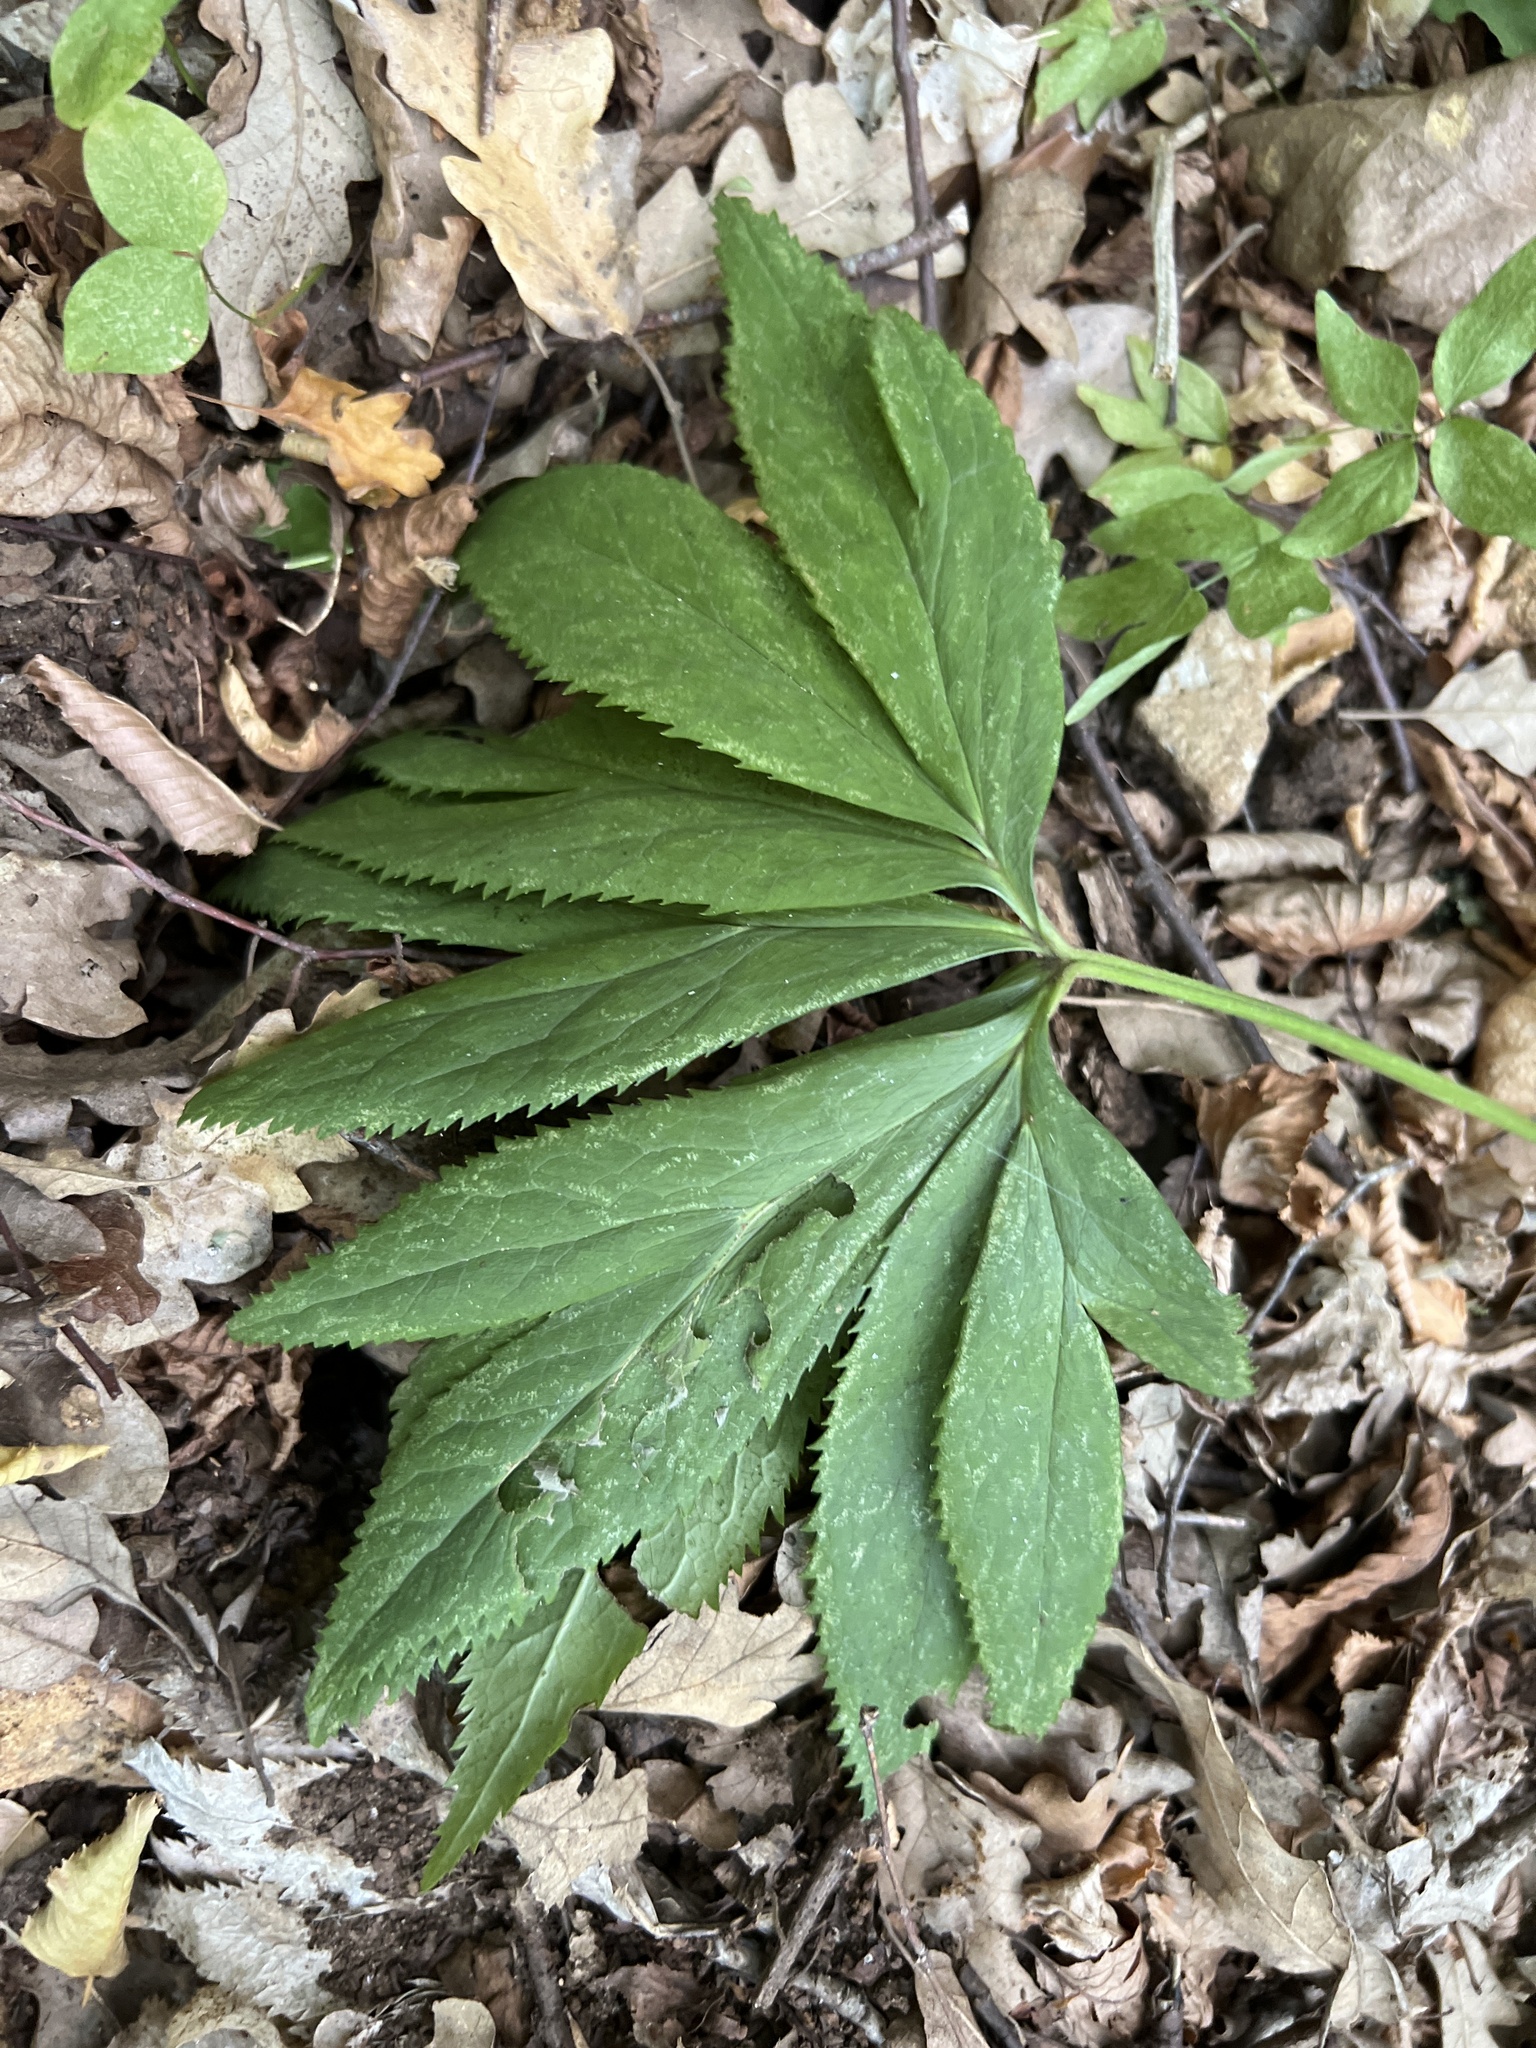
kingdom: Plantae
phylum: Tracheophyta
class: Magnoliopsida
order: Ranunculales
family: Ranunculaceae
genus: Helleborus
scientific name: Helleborus viridis
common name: Green hellebore
